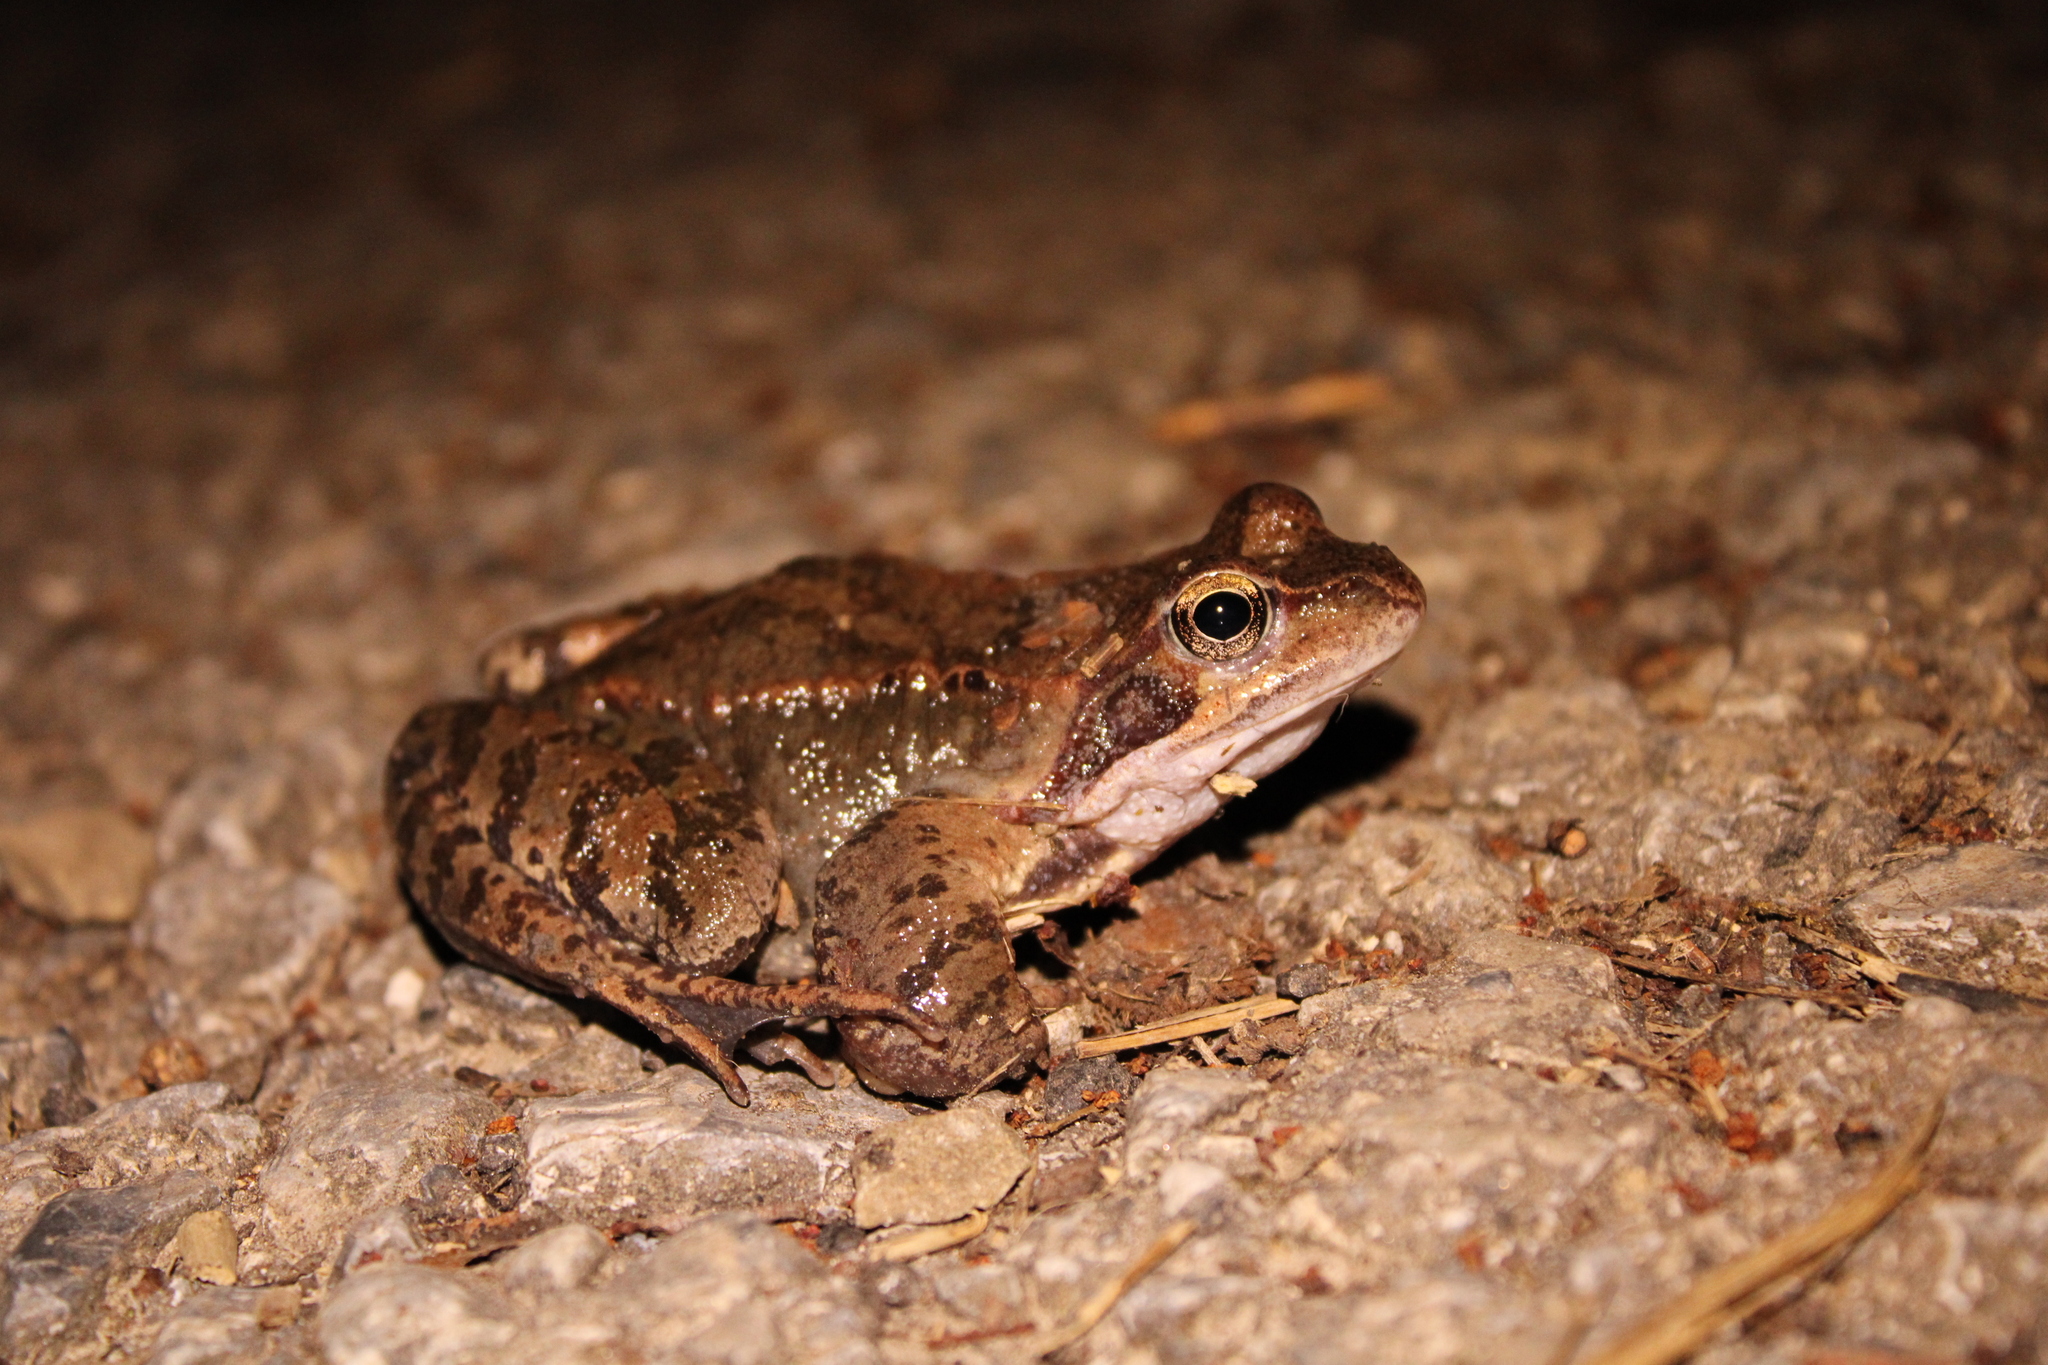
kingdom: Animalia
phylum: Chordata
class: Amphibia
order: Anura
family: Ranidae
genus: Rana
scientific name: Rana temporaria
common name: Common frog
